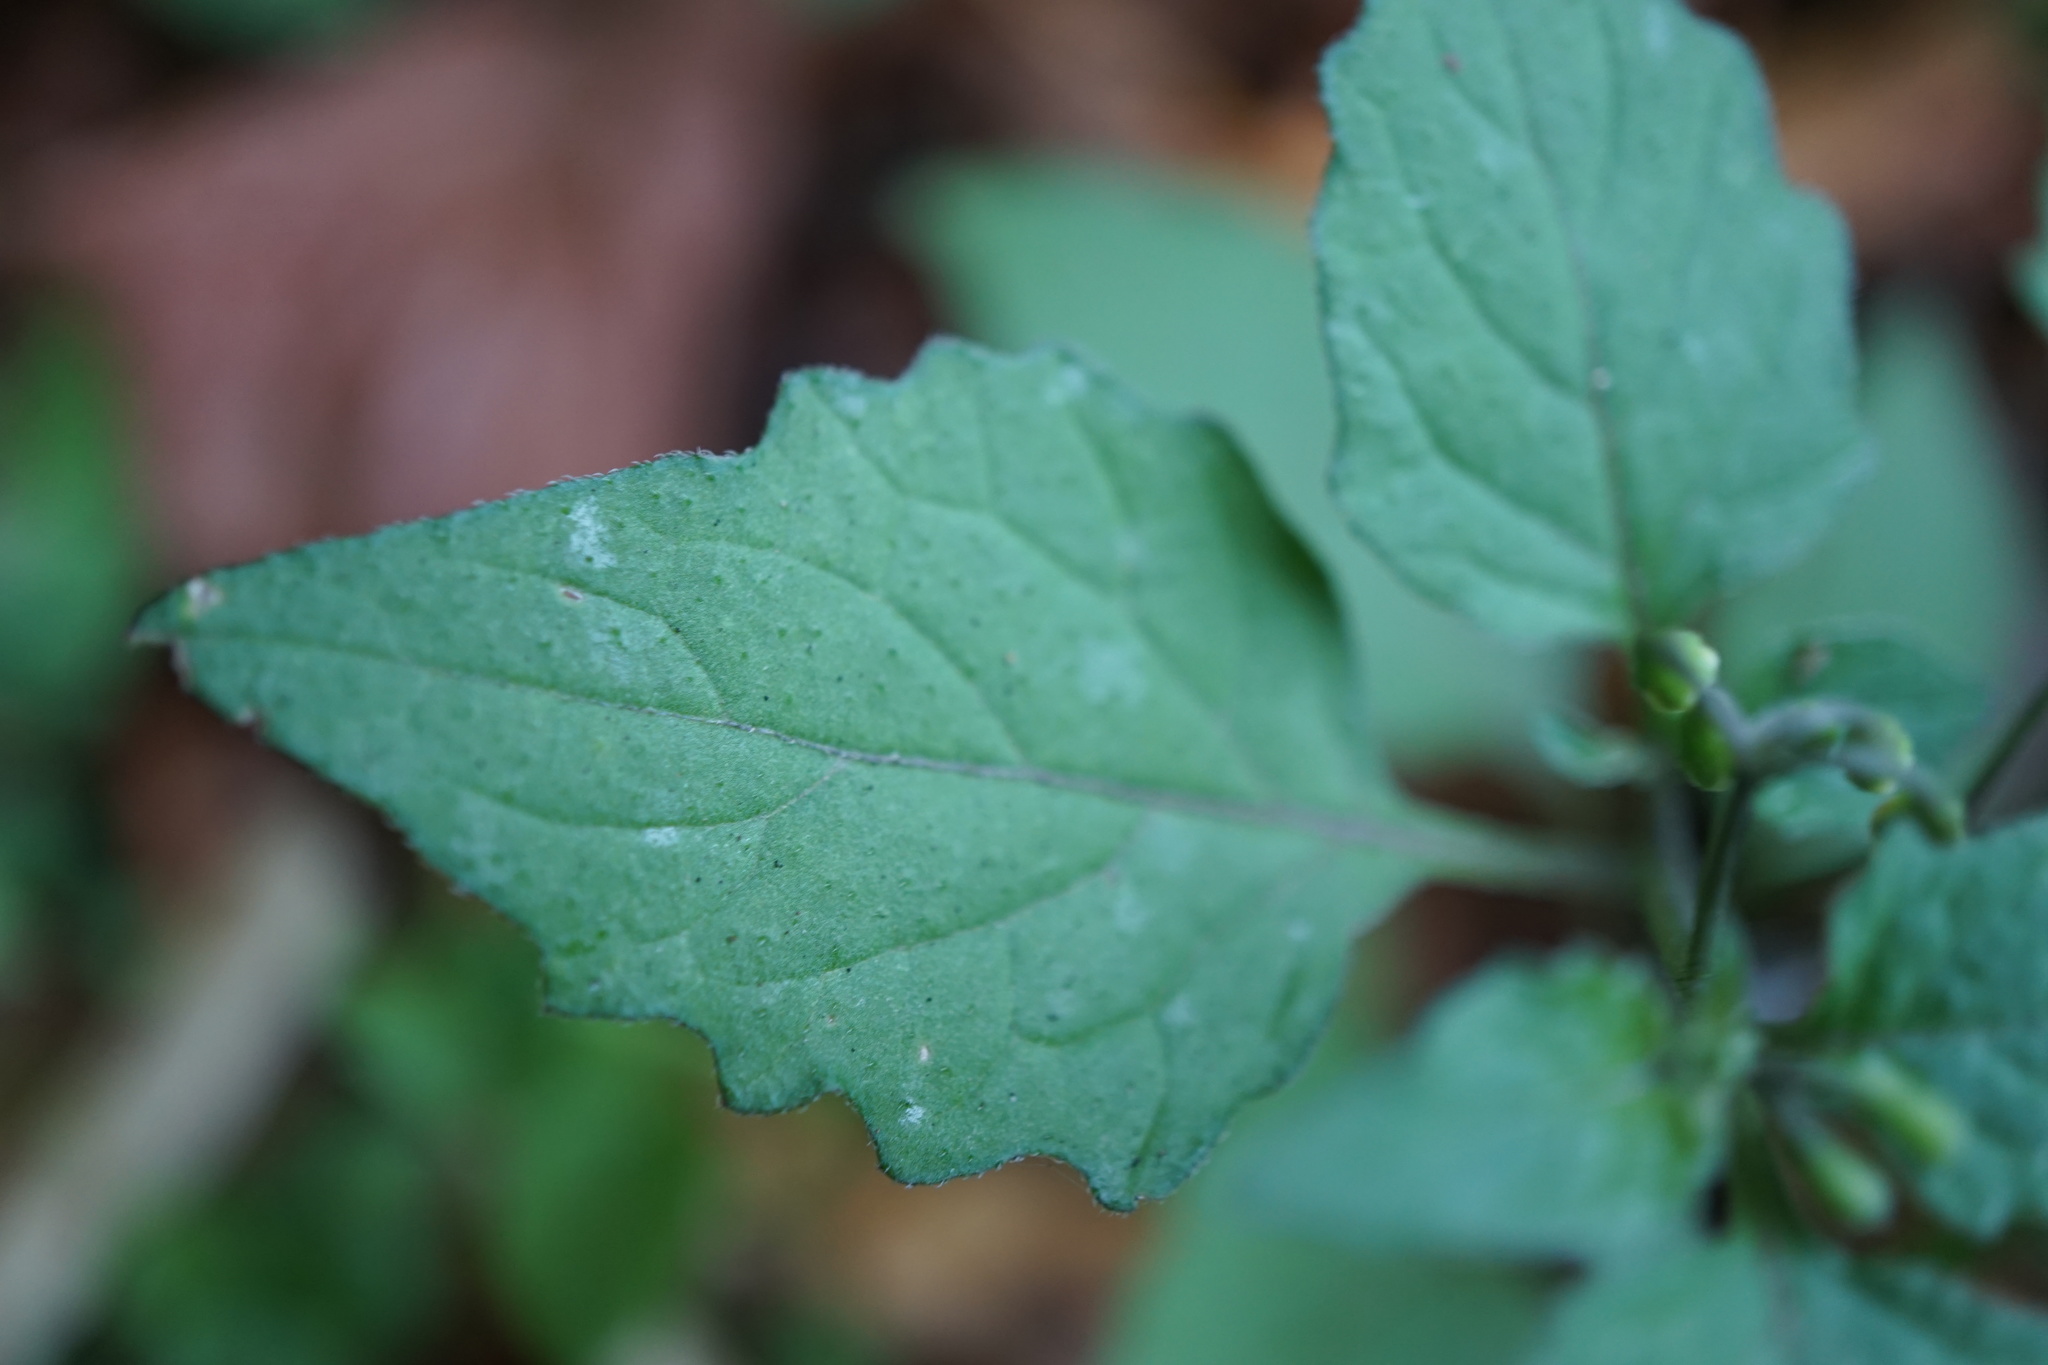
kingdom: Plantae
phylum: Tracheophyta
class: Magnoliopsida
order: Solanales
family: Solanaceae
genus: Solanum
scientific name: Solanum nigrum
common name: Black nightshade
